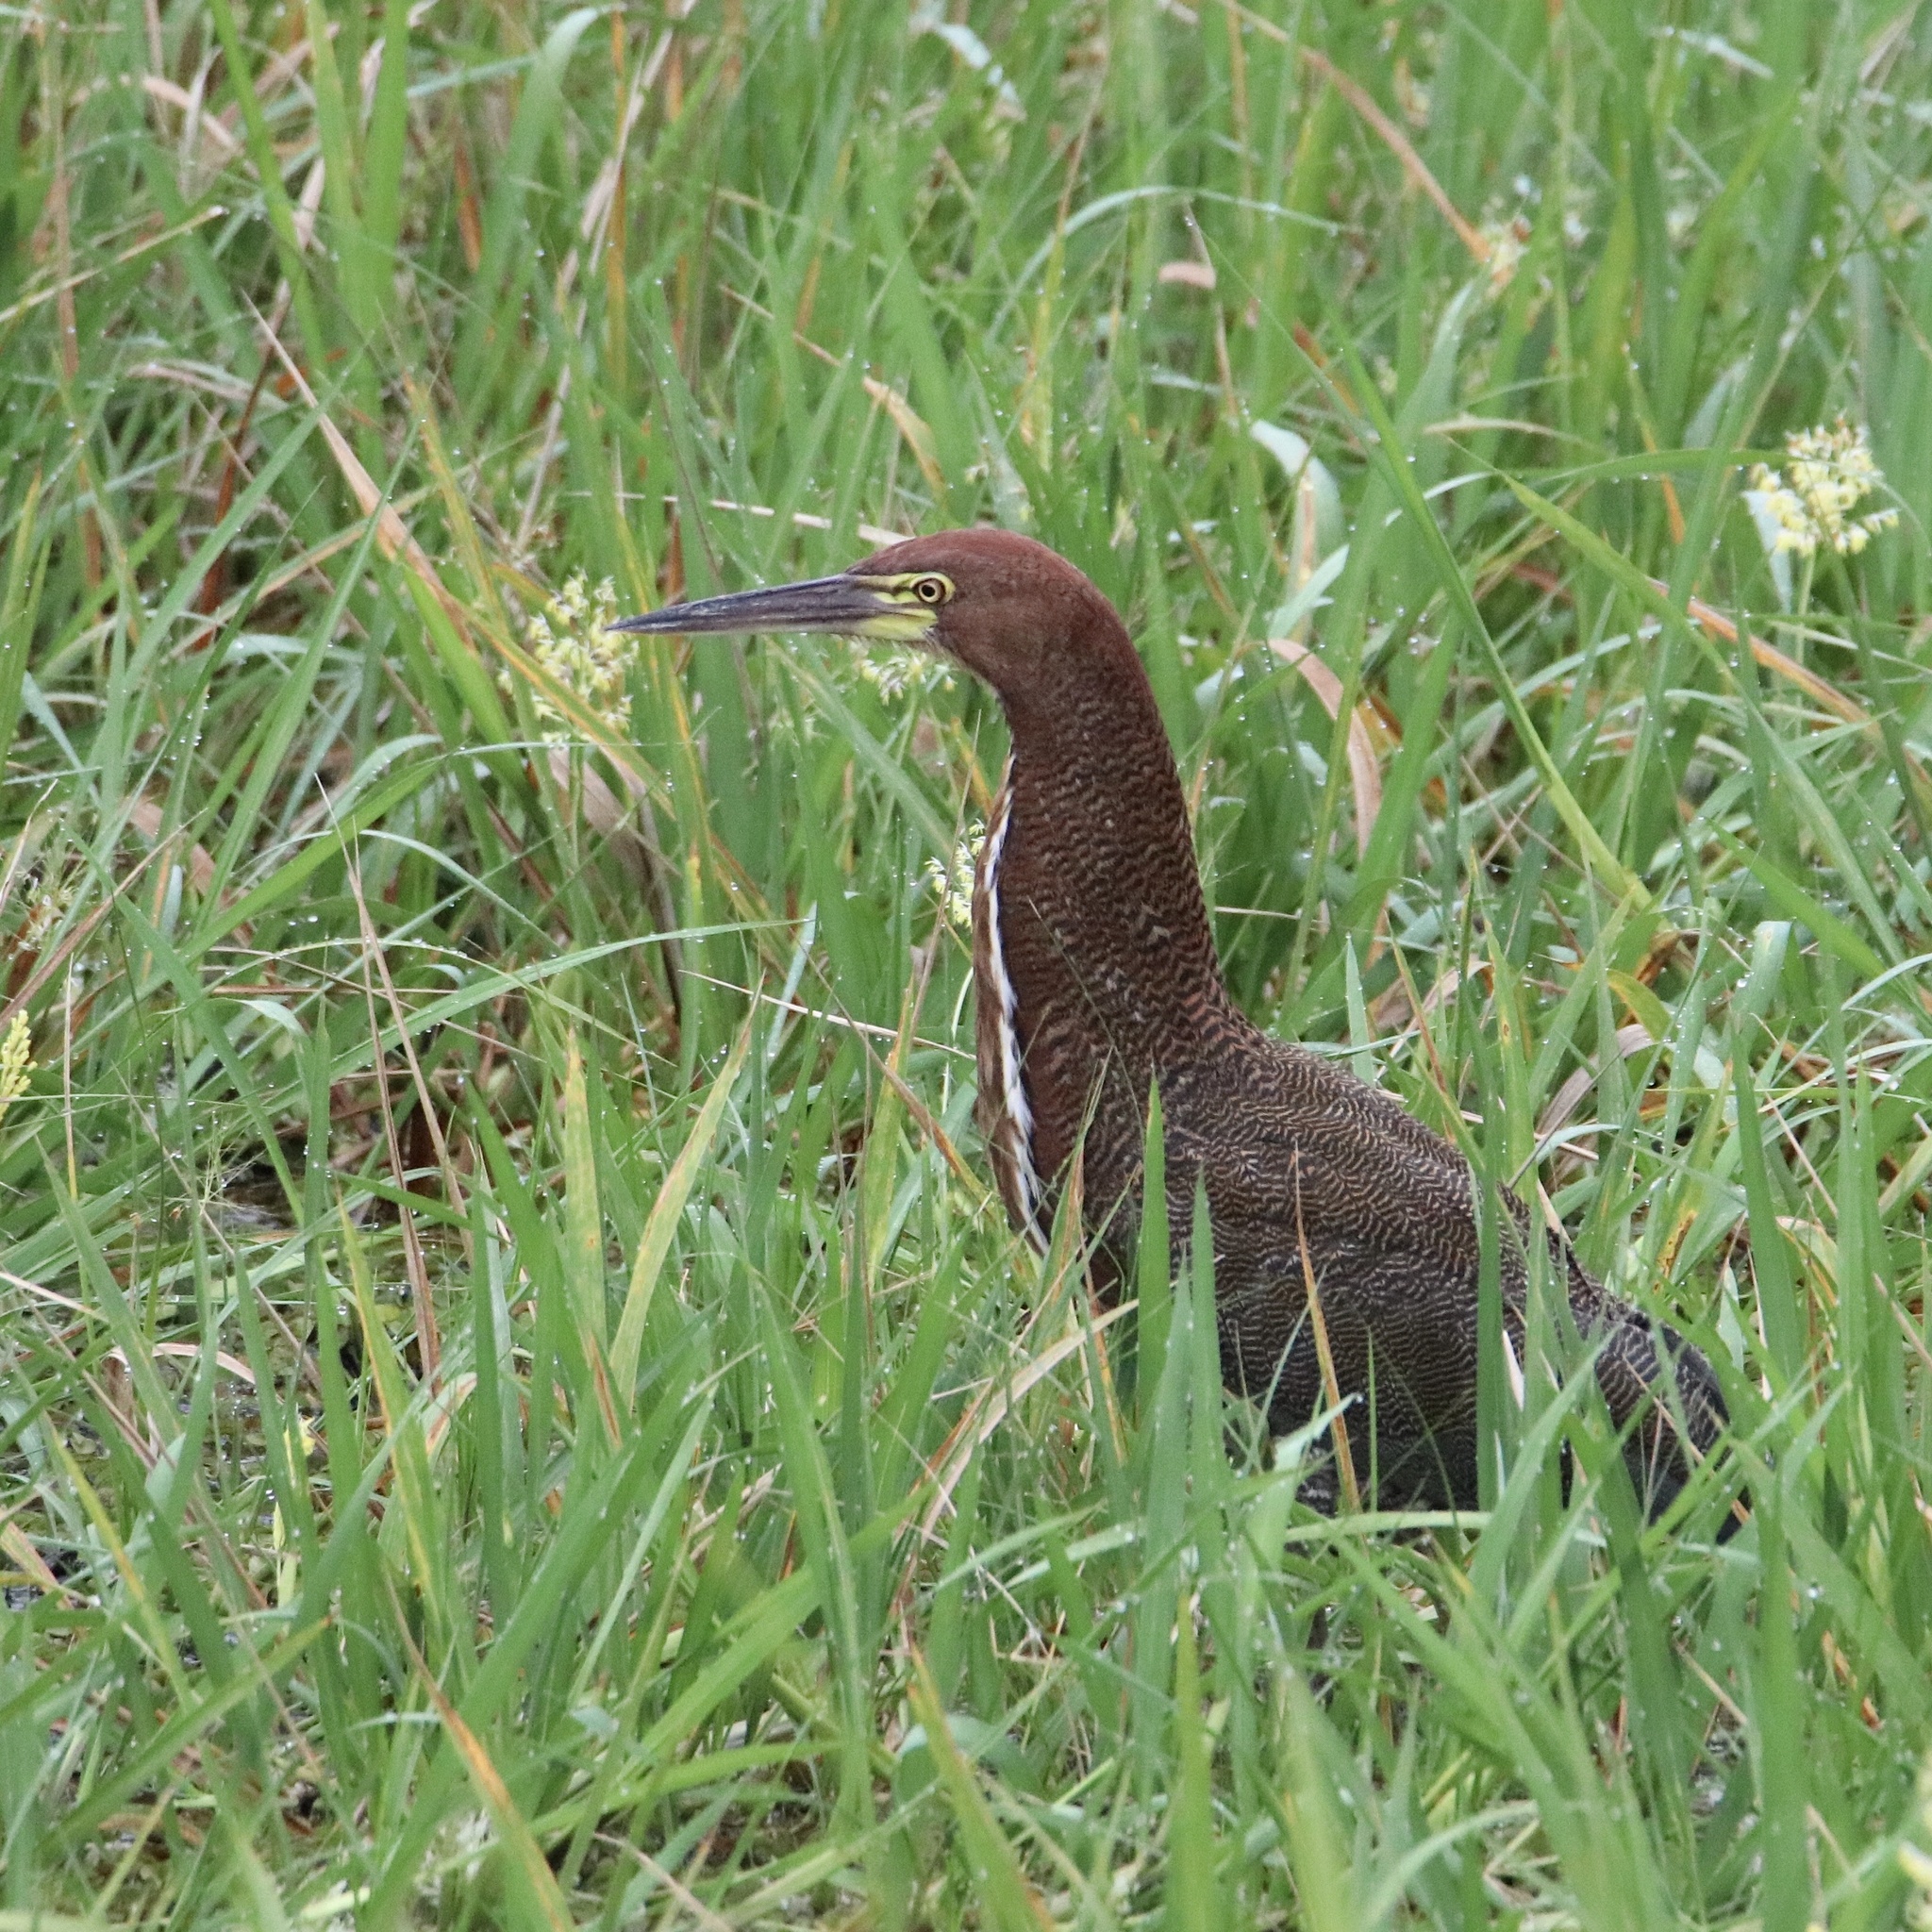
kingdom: Animalia
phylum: Chordata
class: Aves
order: Pelecaniformes
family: Ardeidae
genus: Tigrisoma
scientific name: Tigrisoma lineatum
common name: Rufescent tiger-heron
